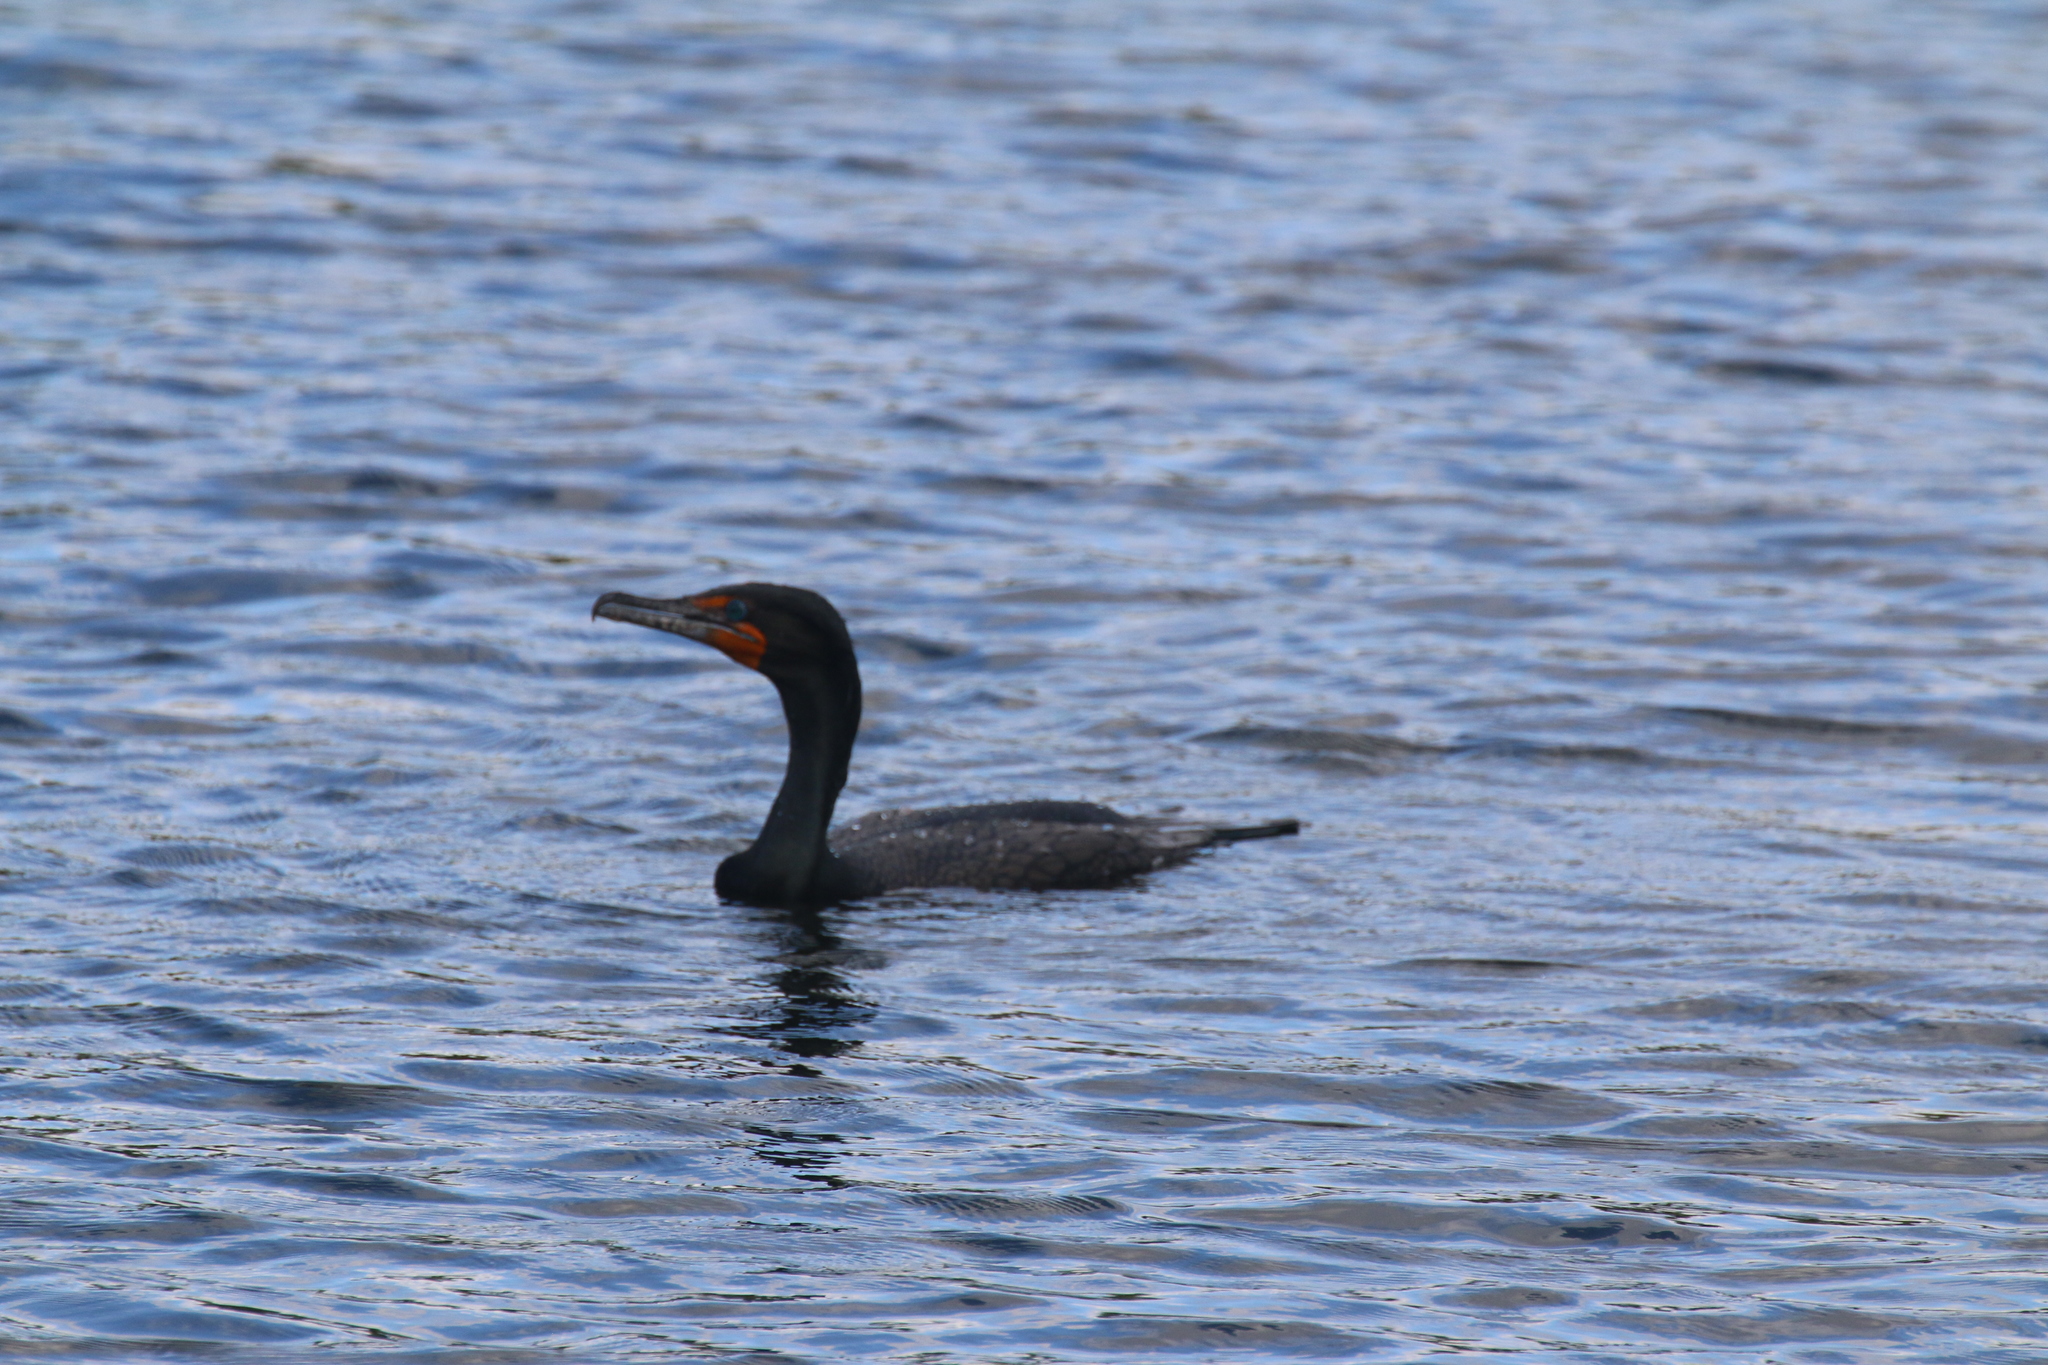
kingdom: Animalia
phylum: Chordata
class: Aves
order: Suliformes
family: Phalacrocoracidae
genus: Phalacrocorax
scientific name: Phalacrocorax auritus
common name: Double-crested cormorant
